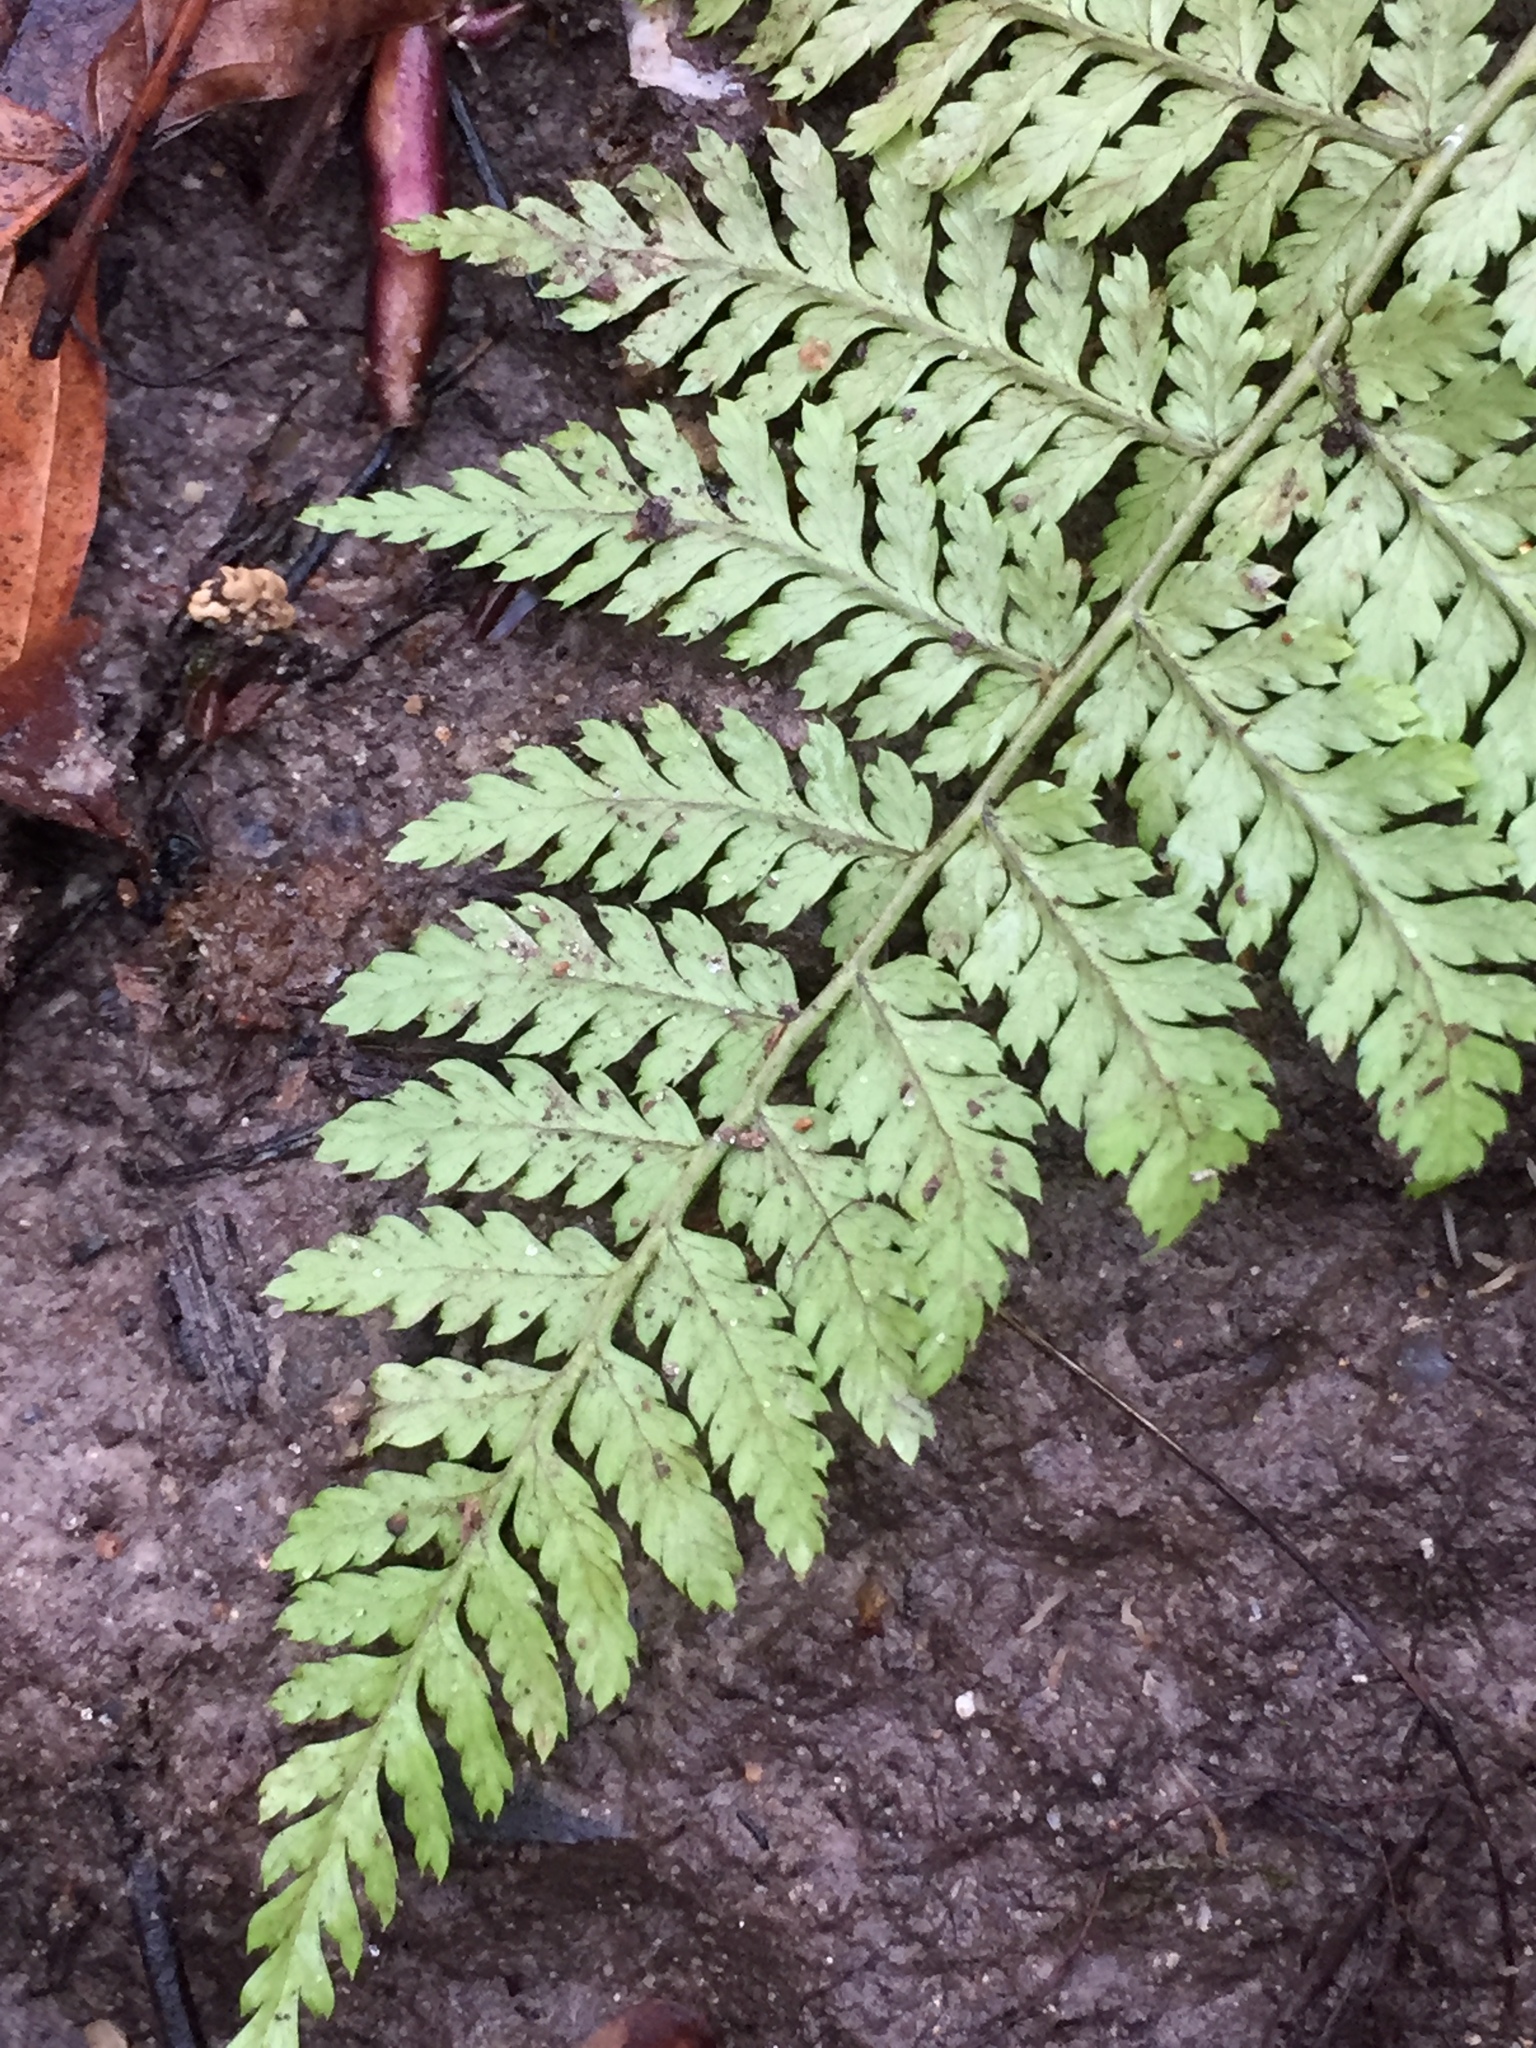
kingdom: Plantae
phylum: Tracheophyta
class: Polypodiopsida
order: Polypodiales
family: Dryopteridaceae
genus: Dryopteris
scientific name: Dryopteris intermedia
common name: Evergreen wood fern
